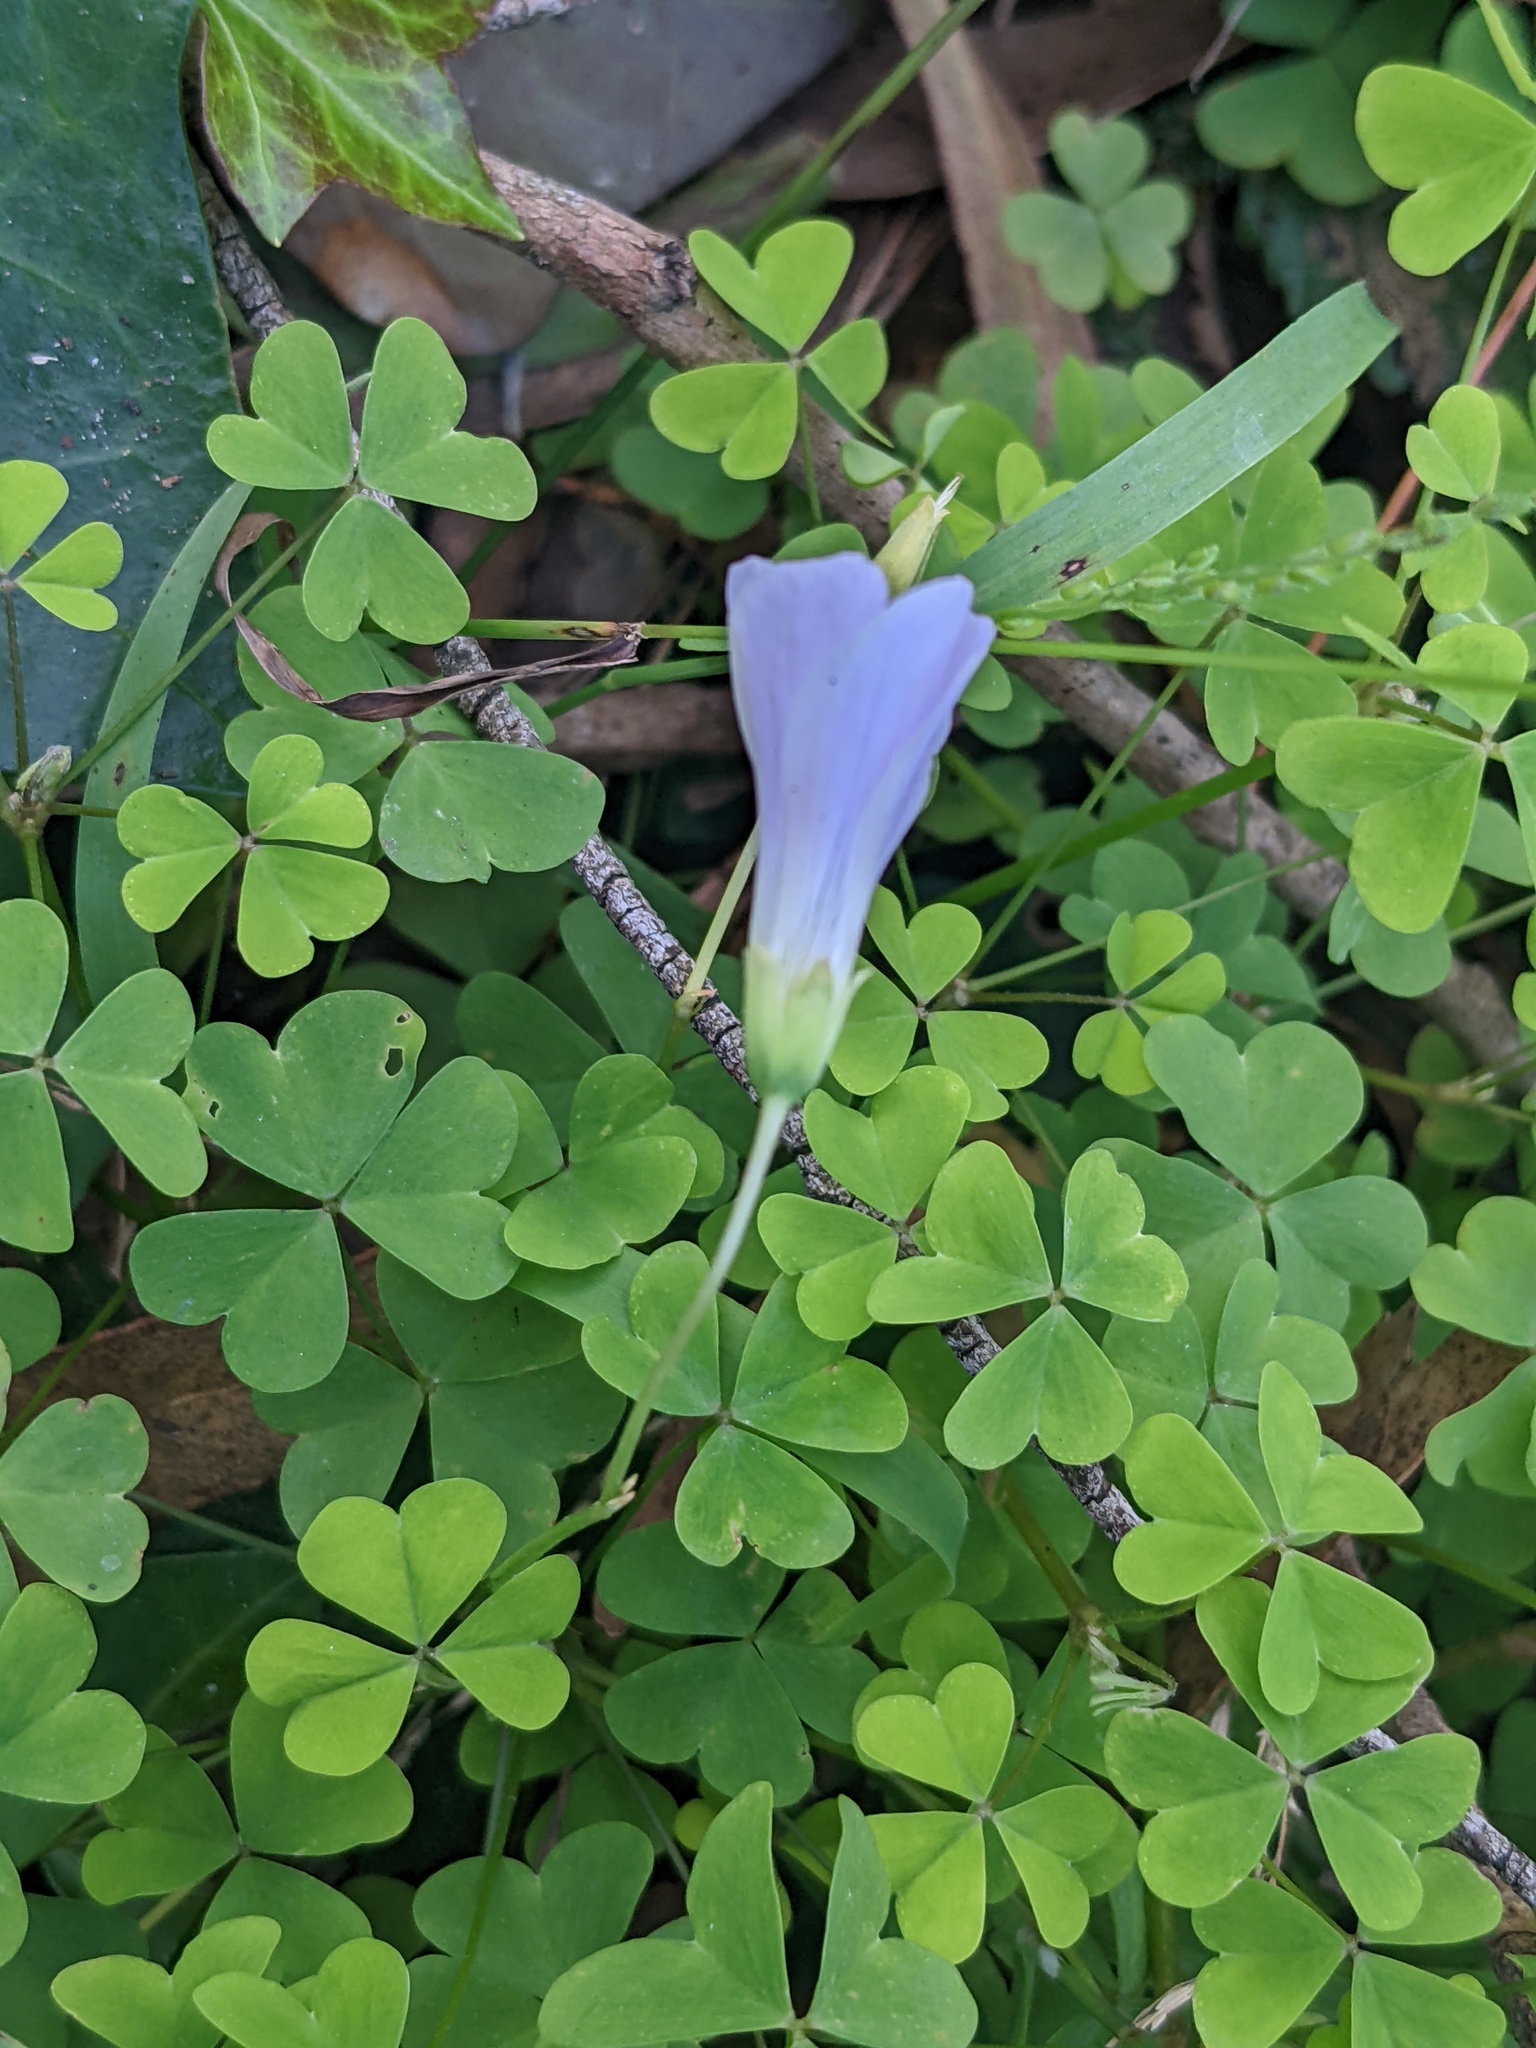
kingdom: Plantae
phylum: Tracheophyta
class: Magnoliopsida
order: Oxalidales
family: Oxalidaceae
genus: Oxalis
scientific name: Oxalis incarnata
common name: Pale pink-sorrel
